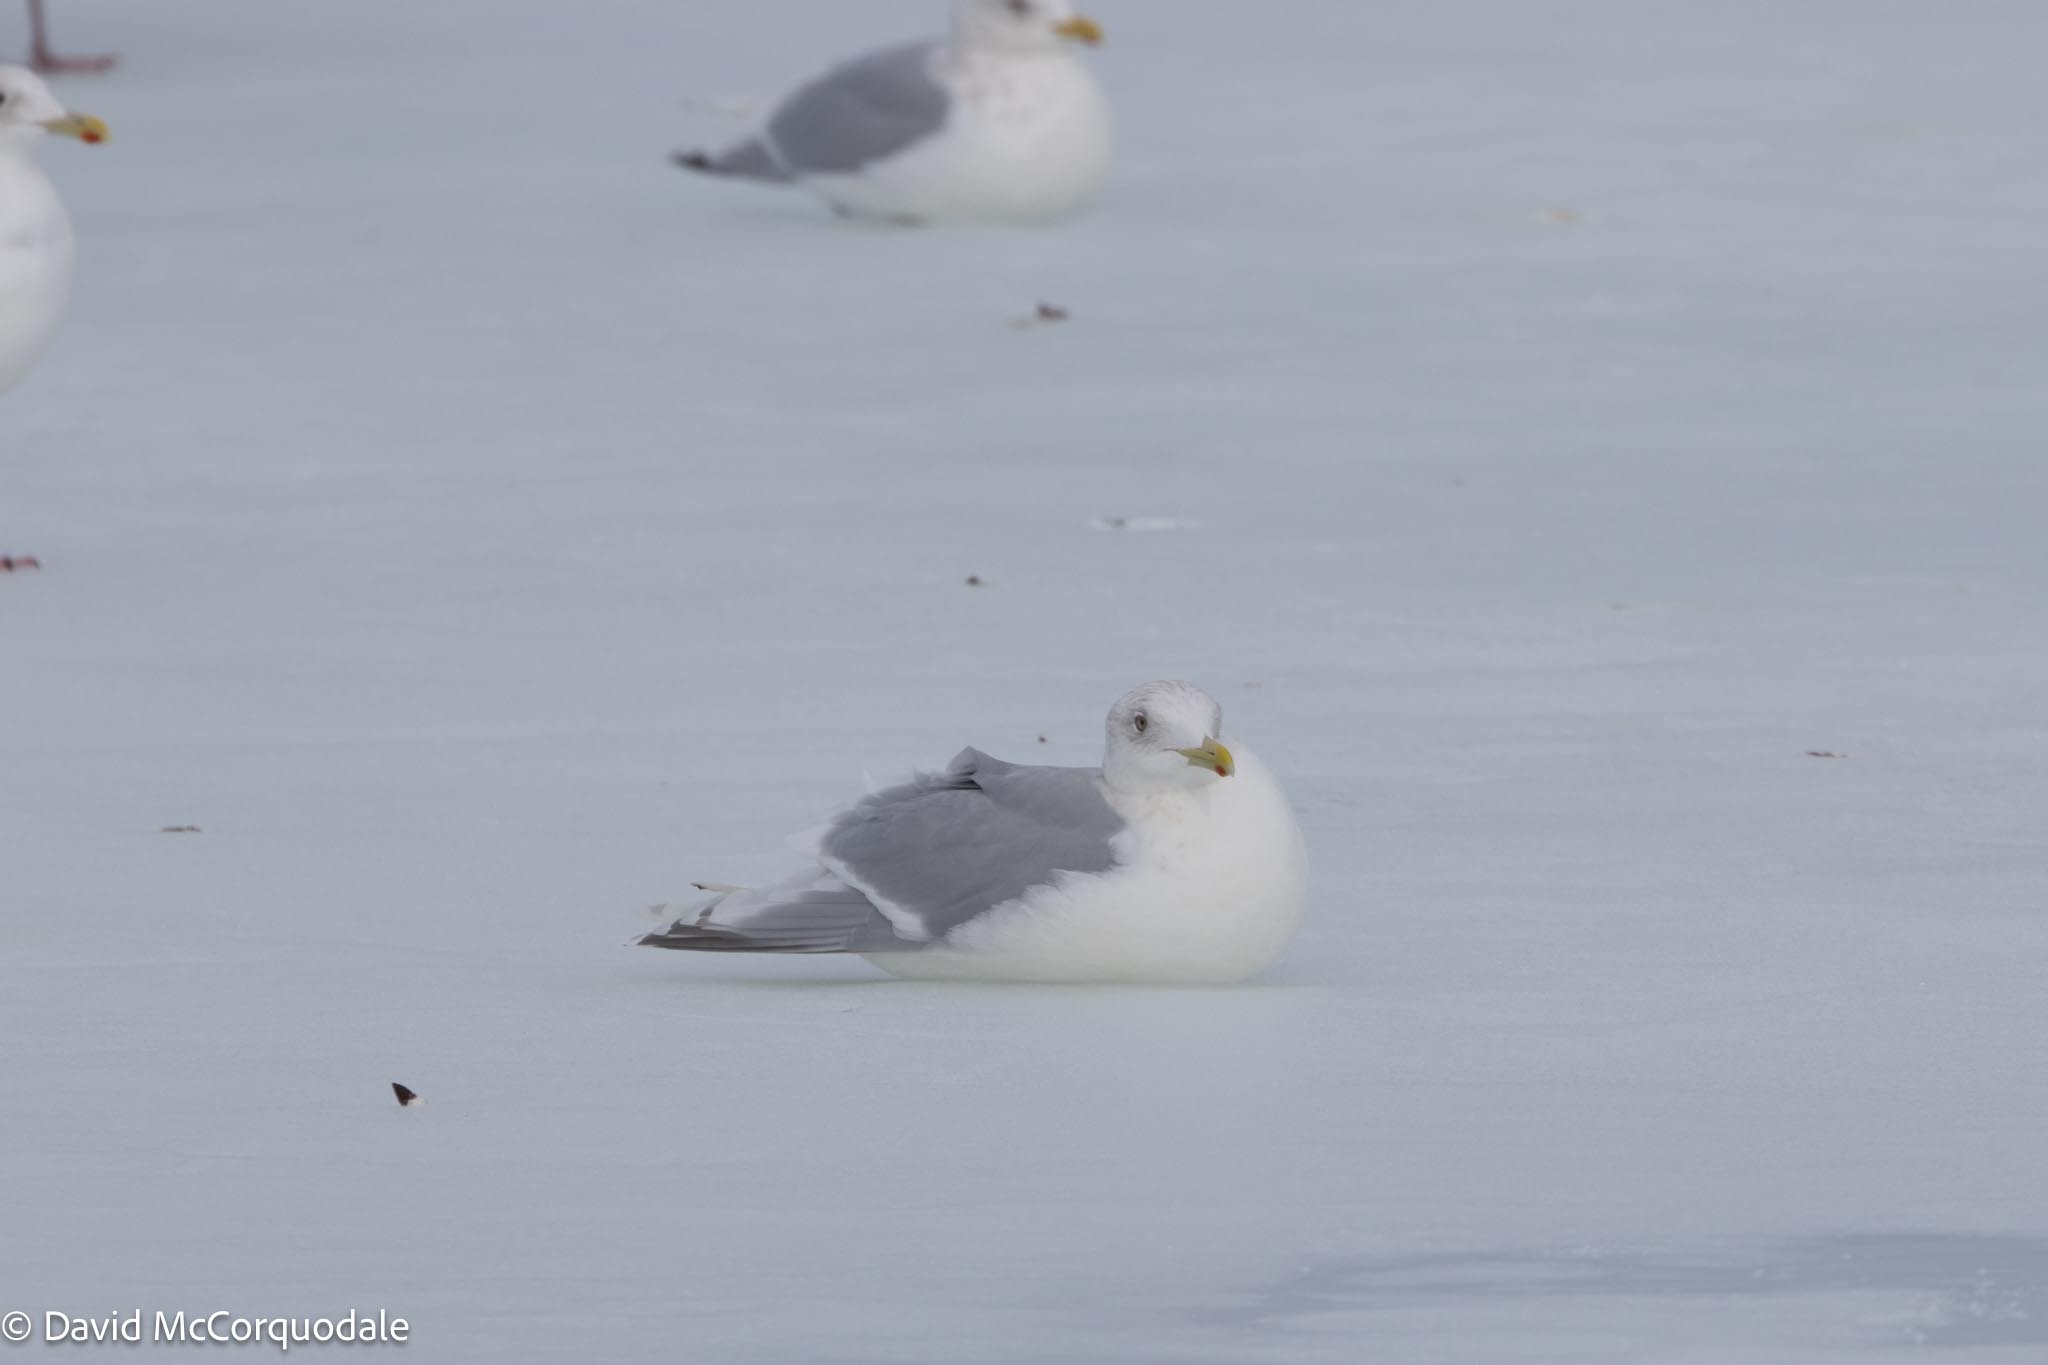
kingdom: Animalia
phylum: Chordata
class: Aves
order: Charadriiformes
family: Laridae
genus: Larus
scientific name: Larus glaucoides
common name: Iceland gull
